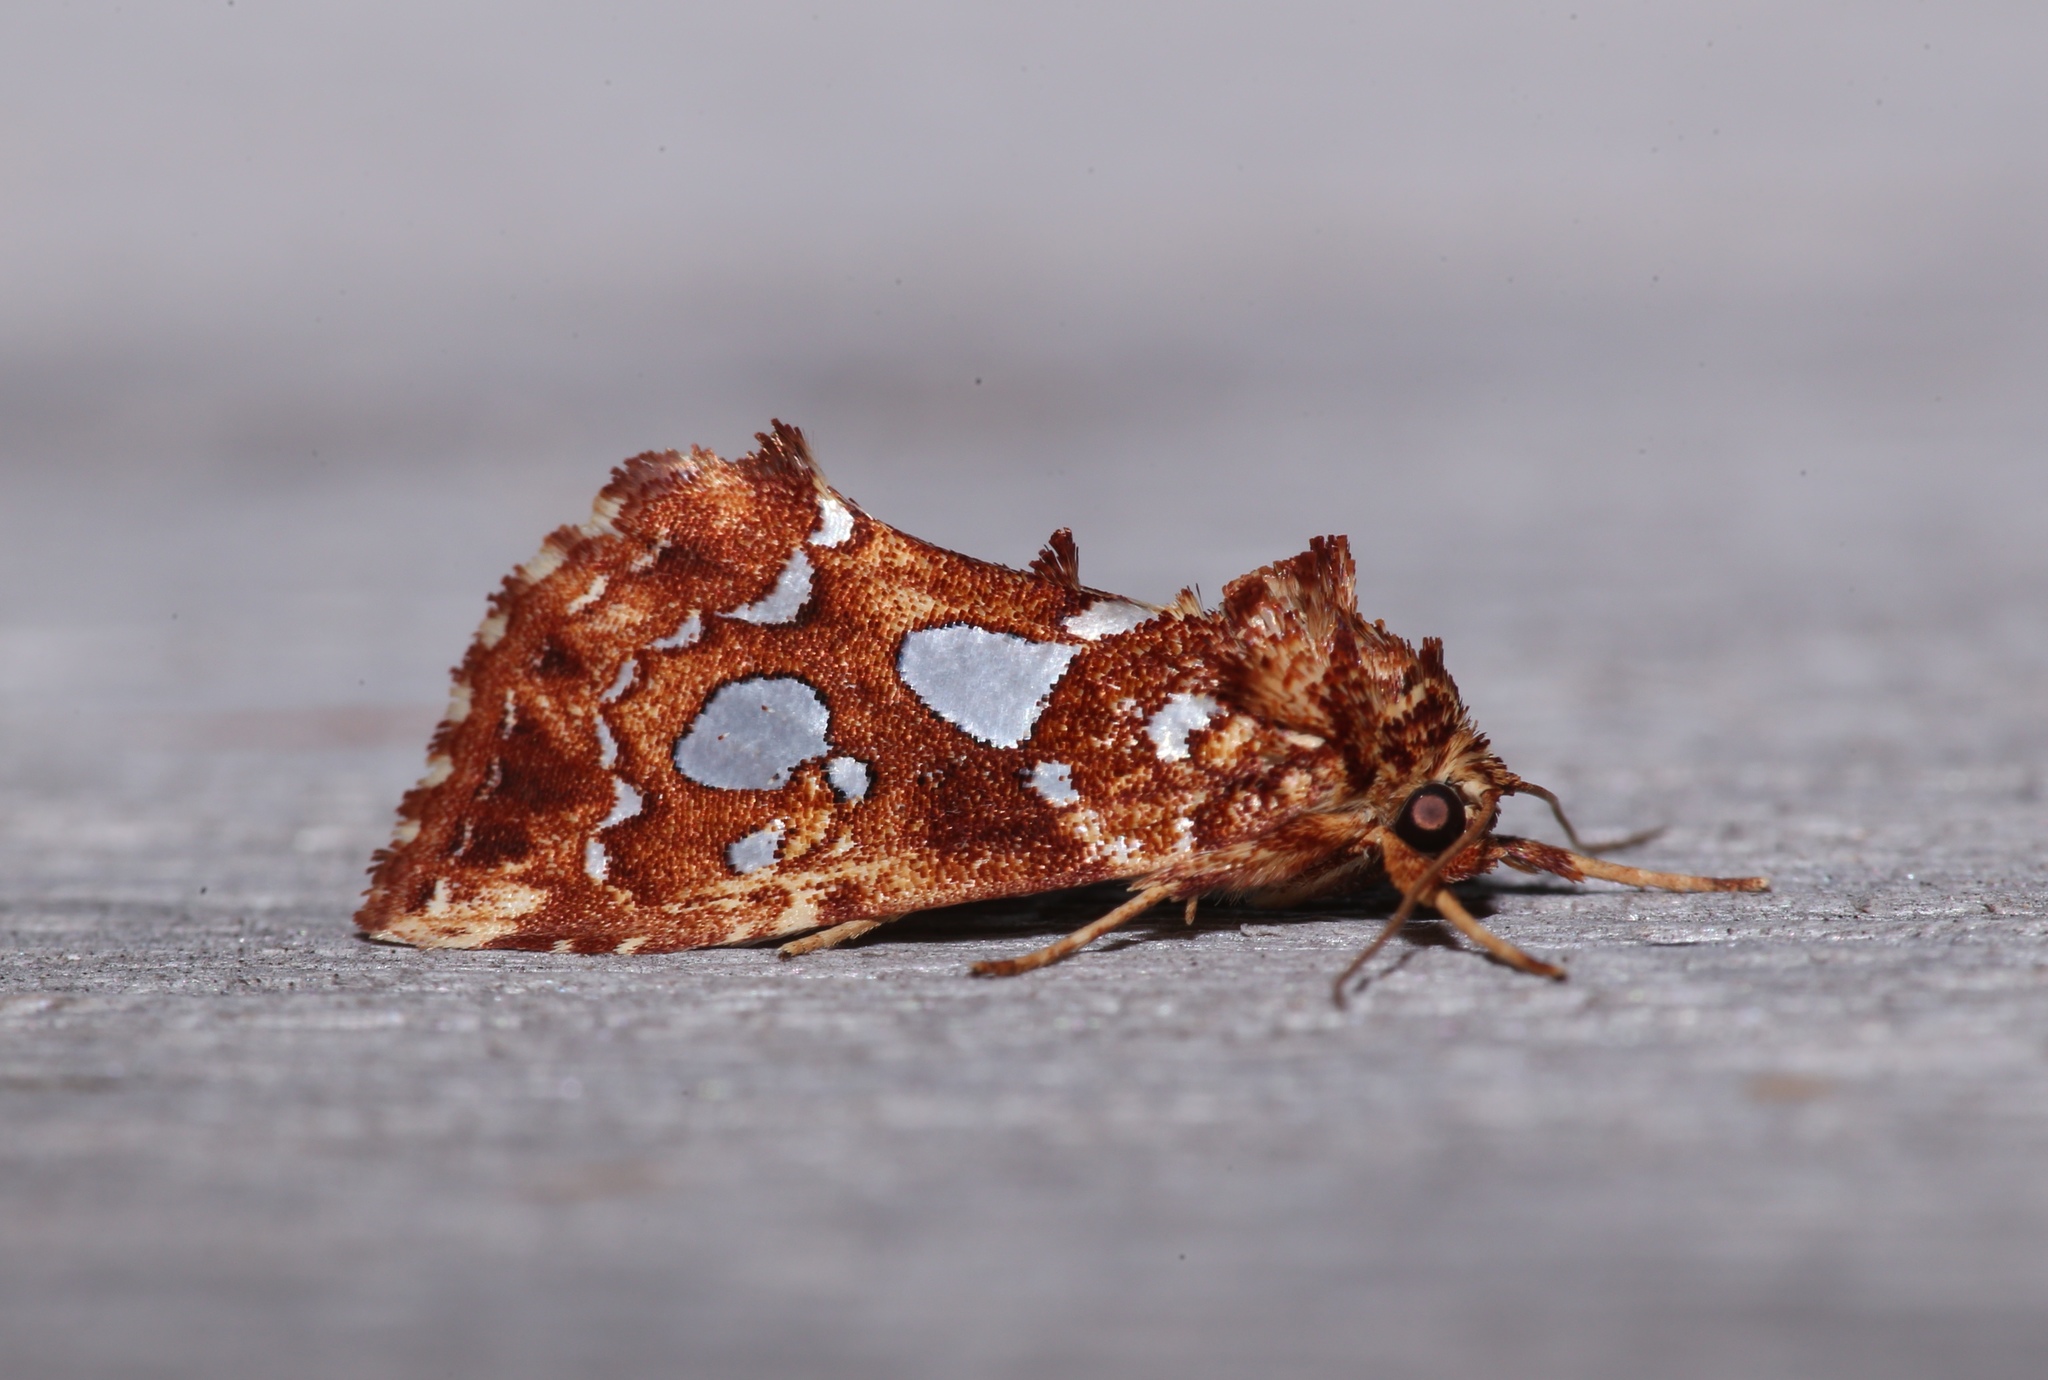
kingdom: Animalia
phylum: Arthropoda
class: Insecta
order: Lepidoptera
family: Noctuidae
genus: Callopistria
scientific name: Callopistria cordata
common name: Silver-spotted fern moth
